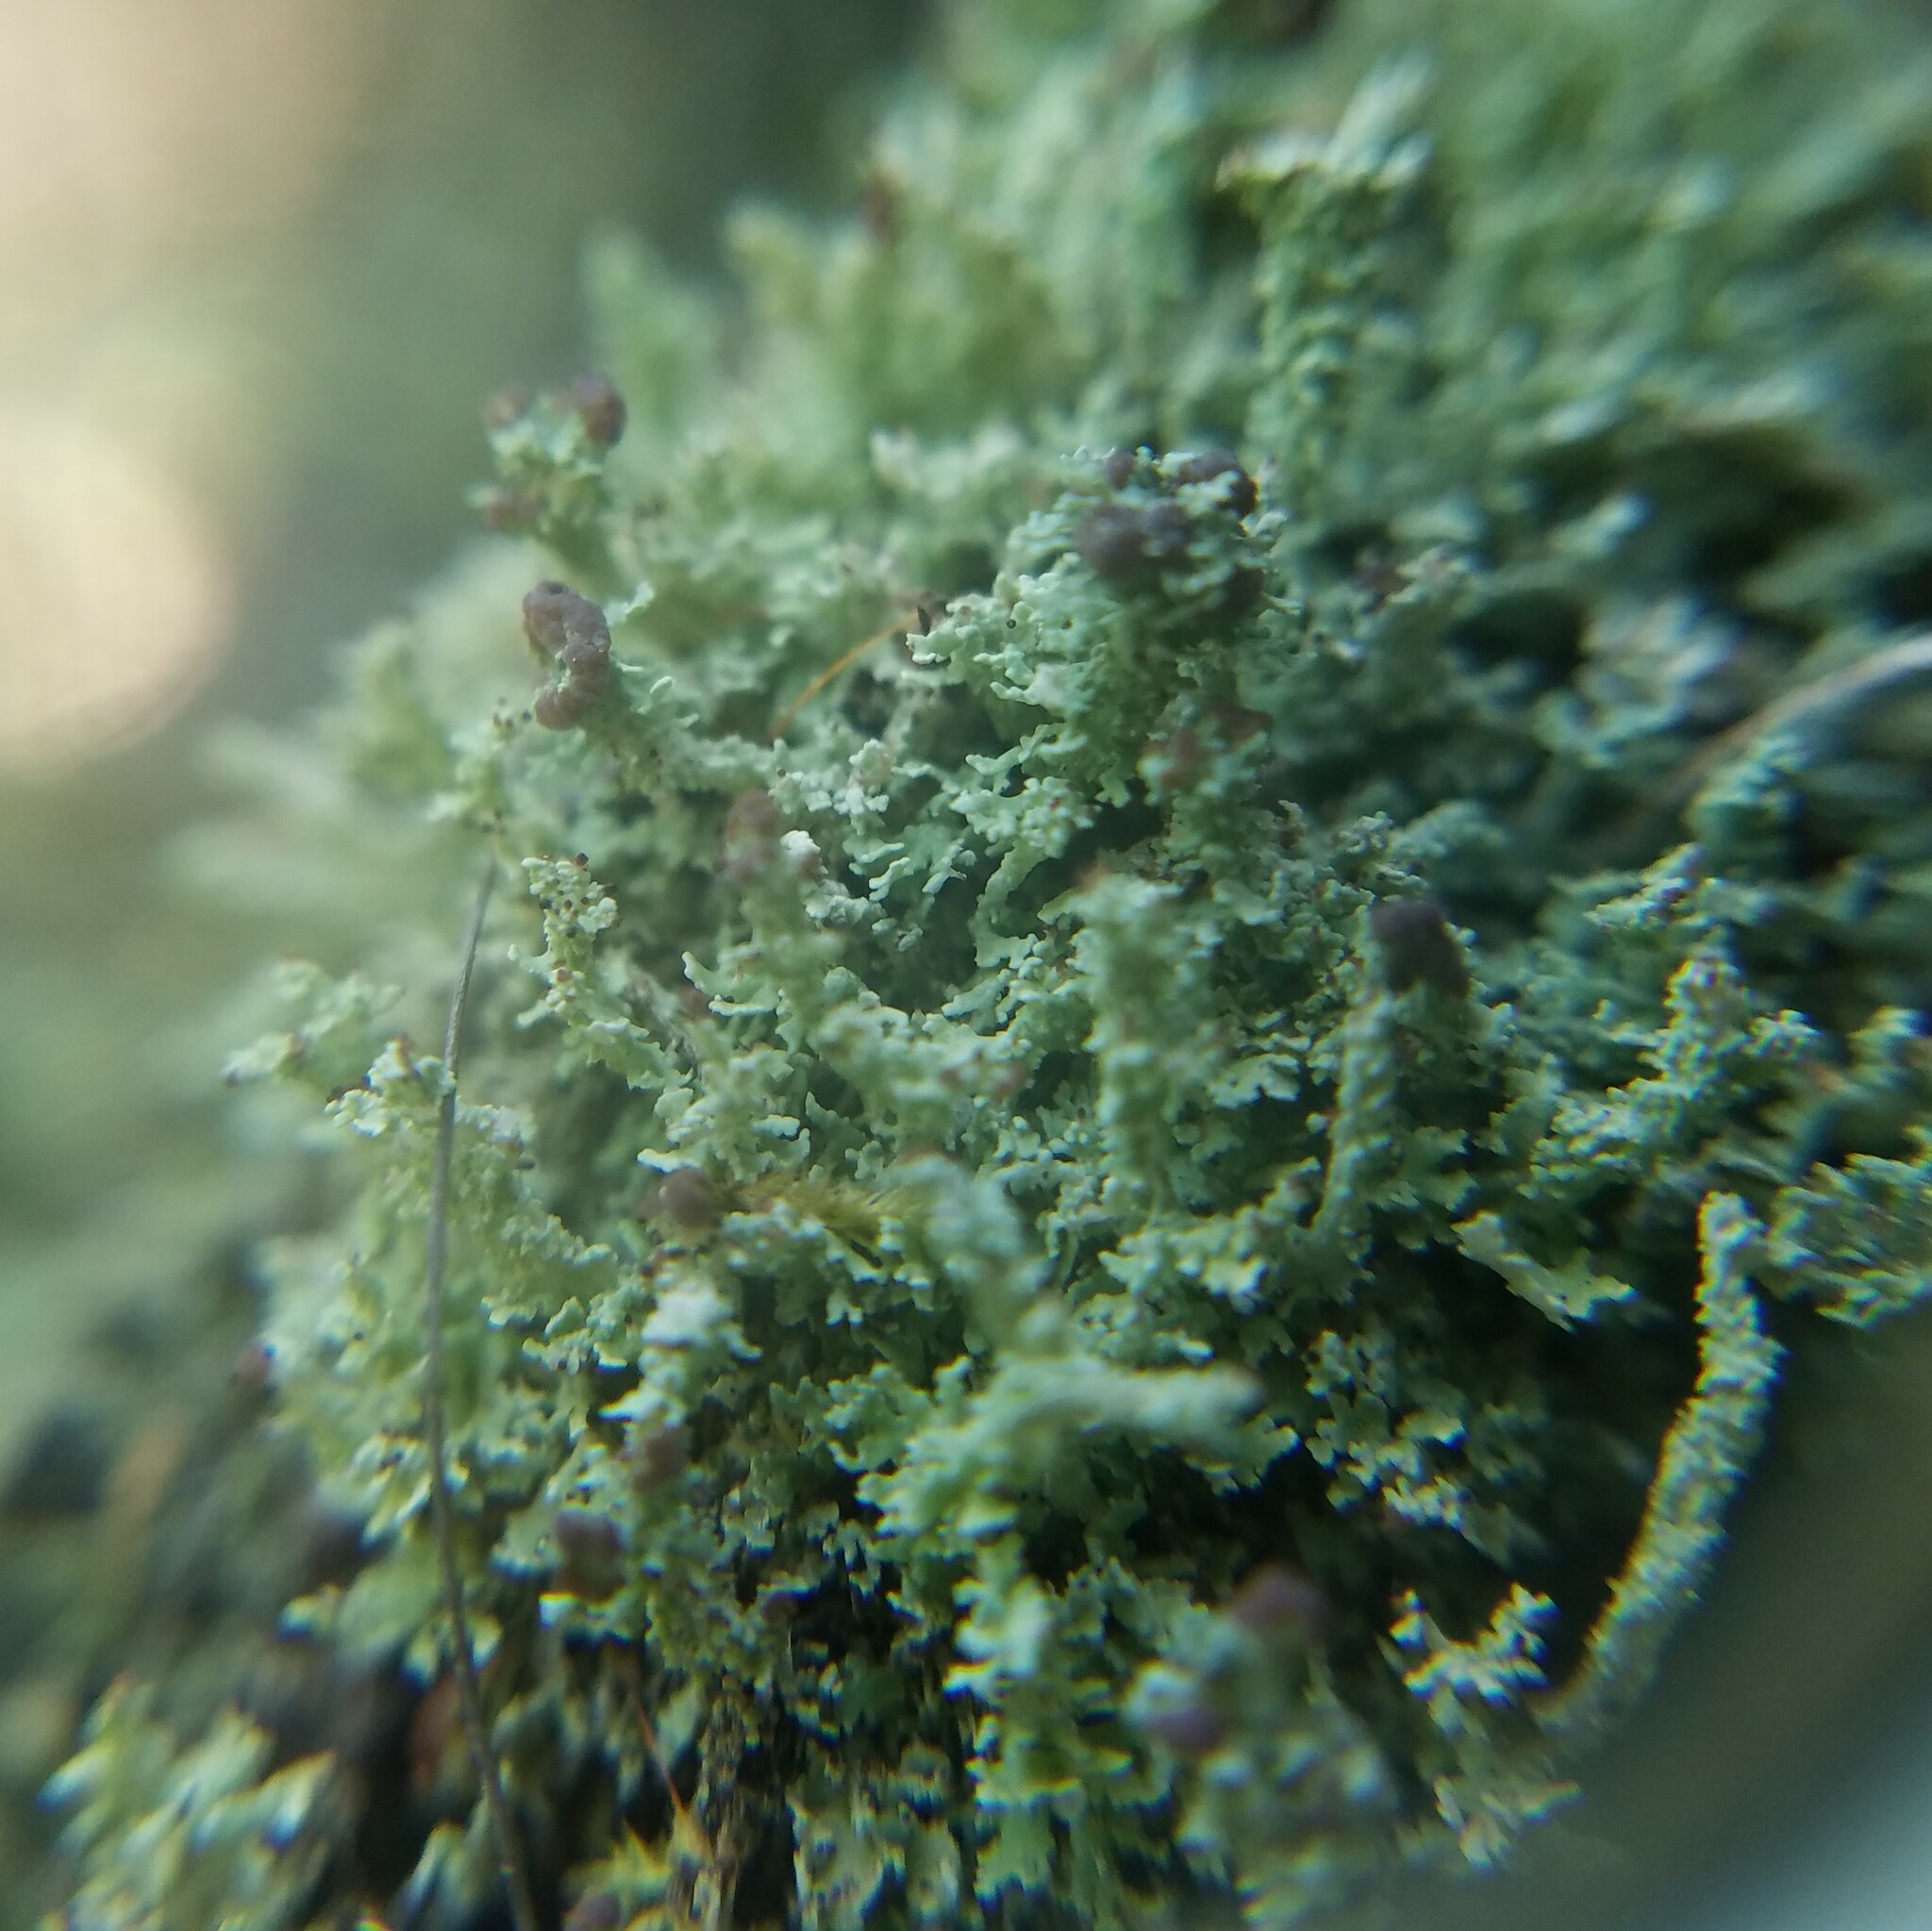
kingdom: Fungi
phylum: Ascomycota
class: Lecanoromycetes
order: Lecanorales
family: Cladoniaceae
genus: Cladonia
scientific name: Cladonia beaumontii
